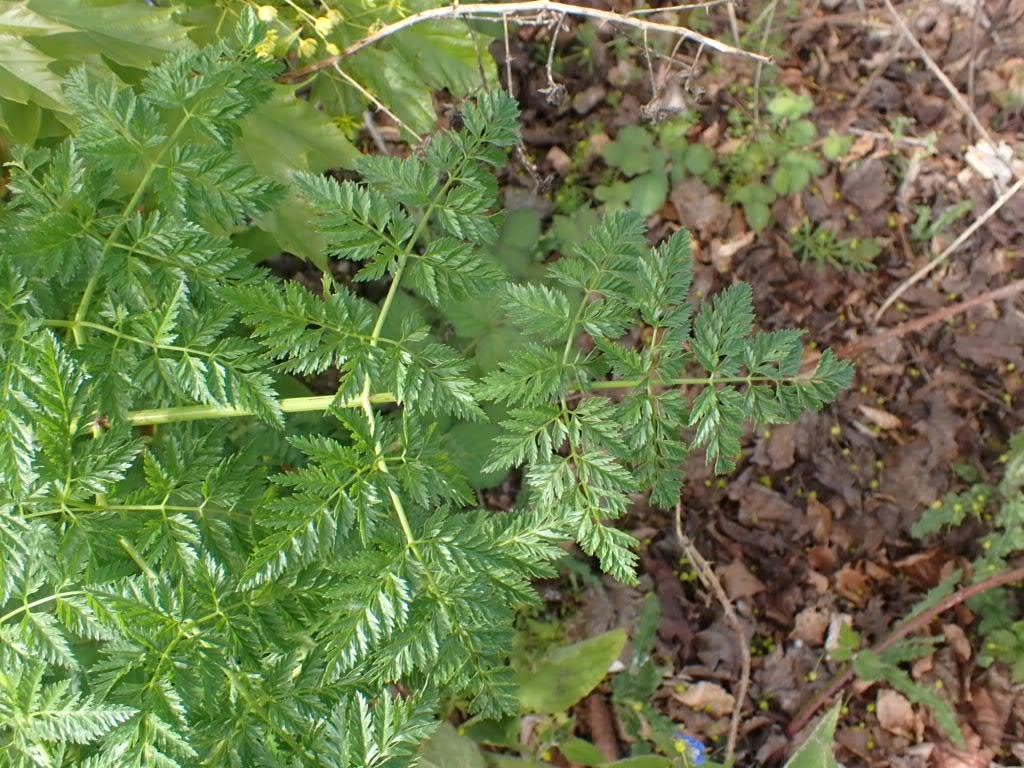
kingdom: Plantae
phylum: Tracheophyta
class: Magnoliopsida
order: Apiales
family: Apiaceae
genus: Conium
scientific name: Conium maculatum
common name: Hemlock
